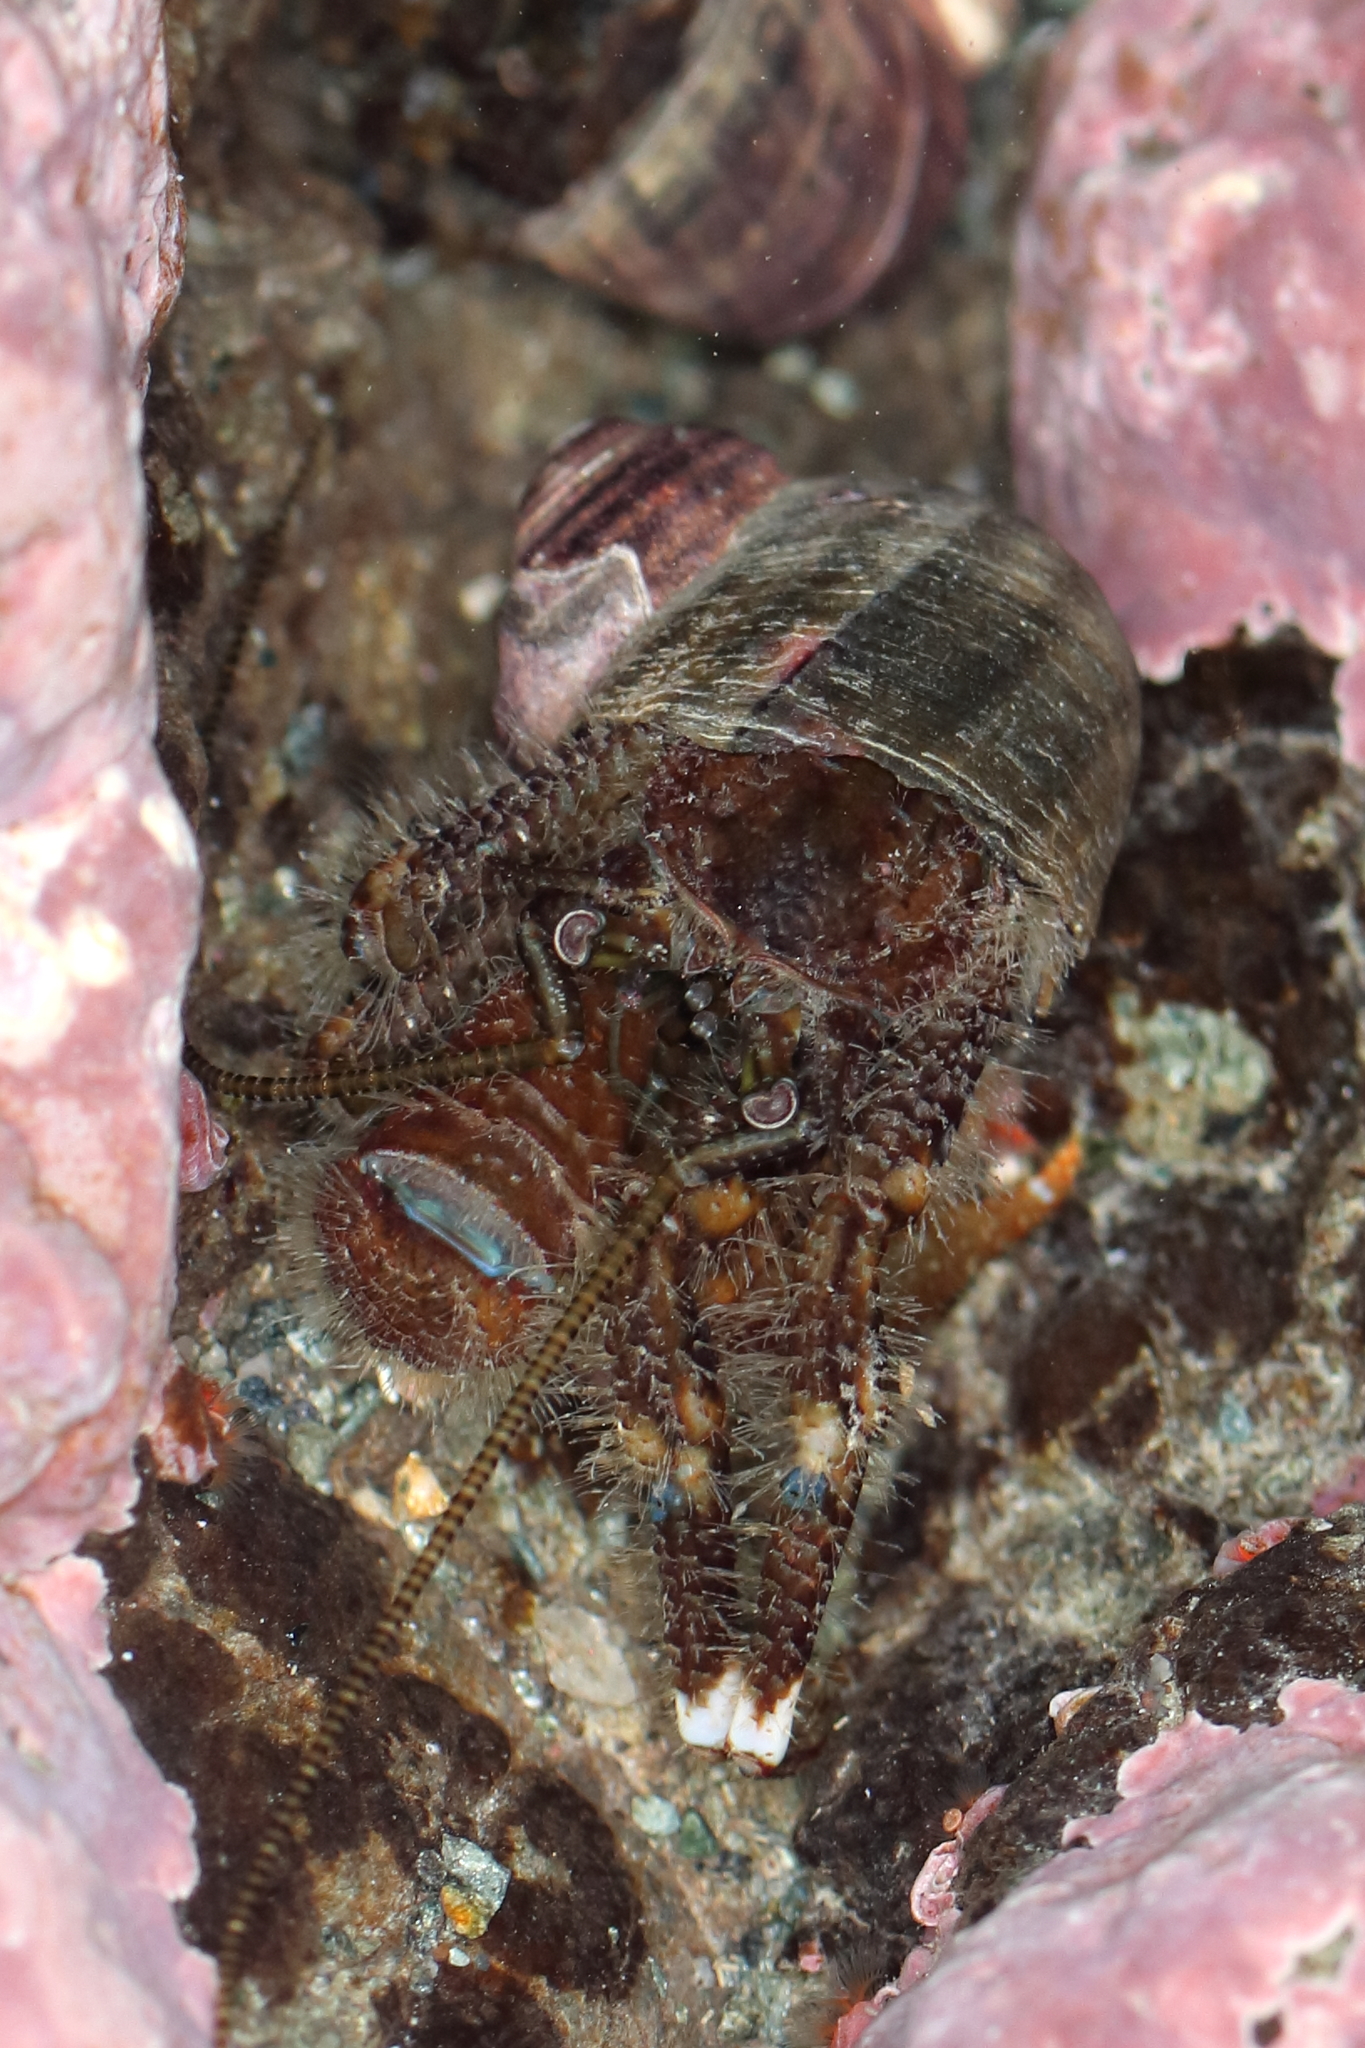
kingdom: Animalia
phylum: Arthropoda
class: Malacostraca
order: Decapoda
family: Paguridae
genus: Pagurus
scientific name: Pagurus hirsutiusculus
